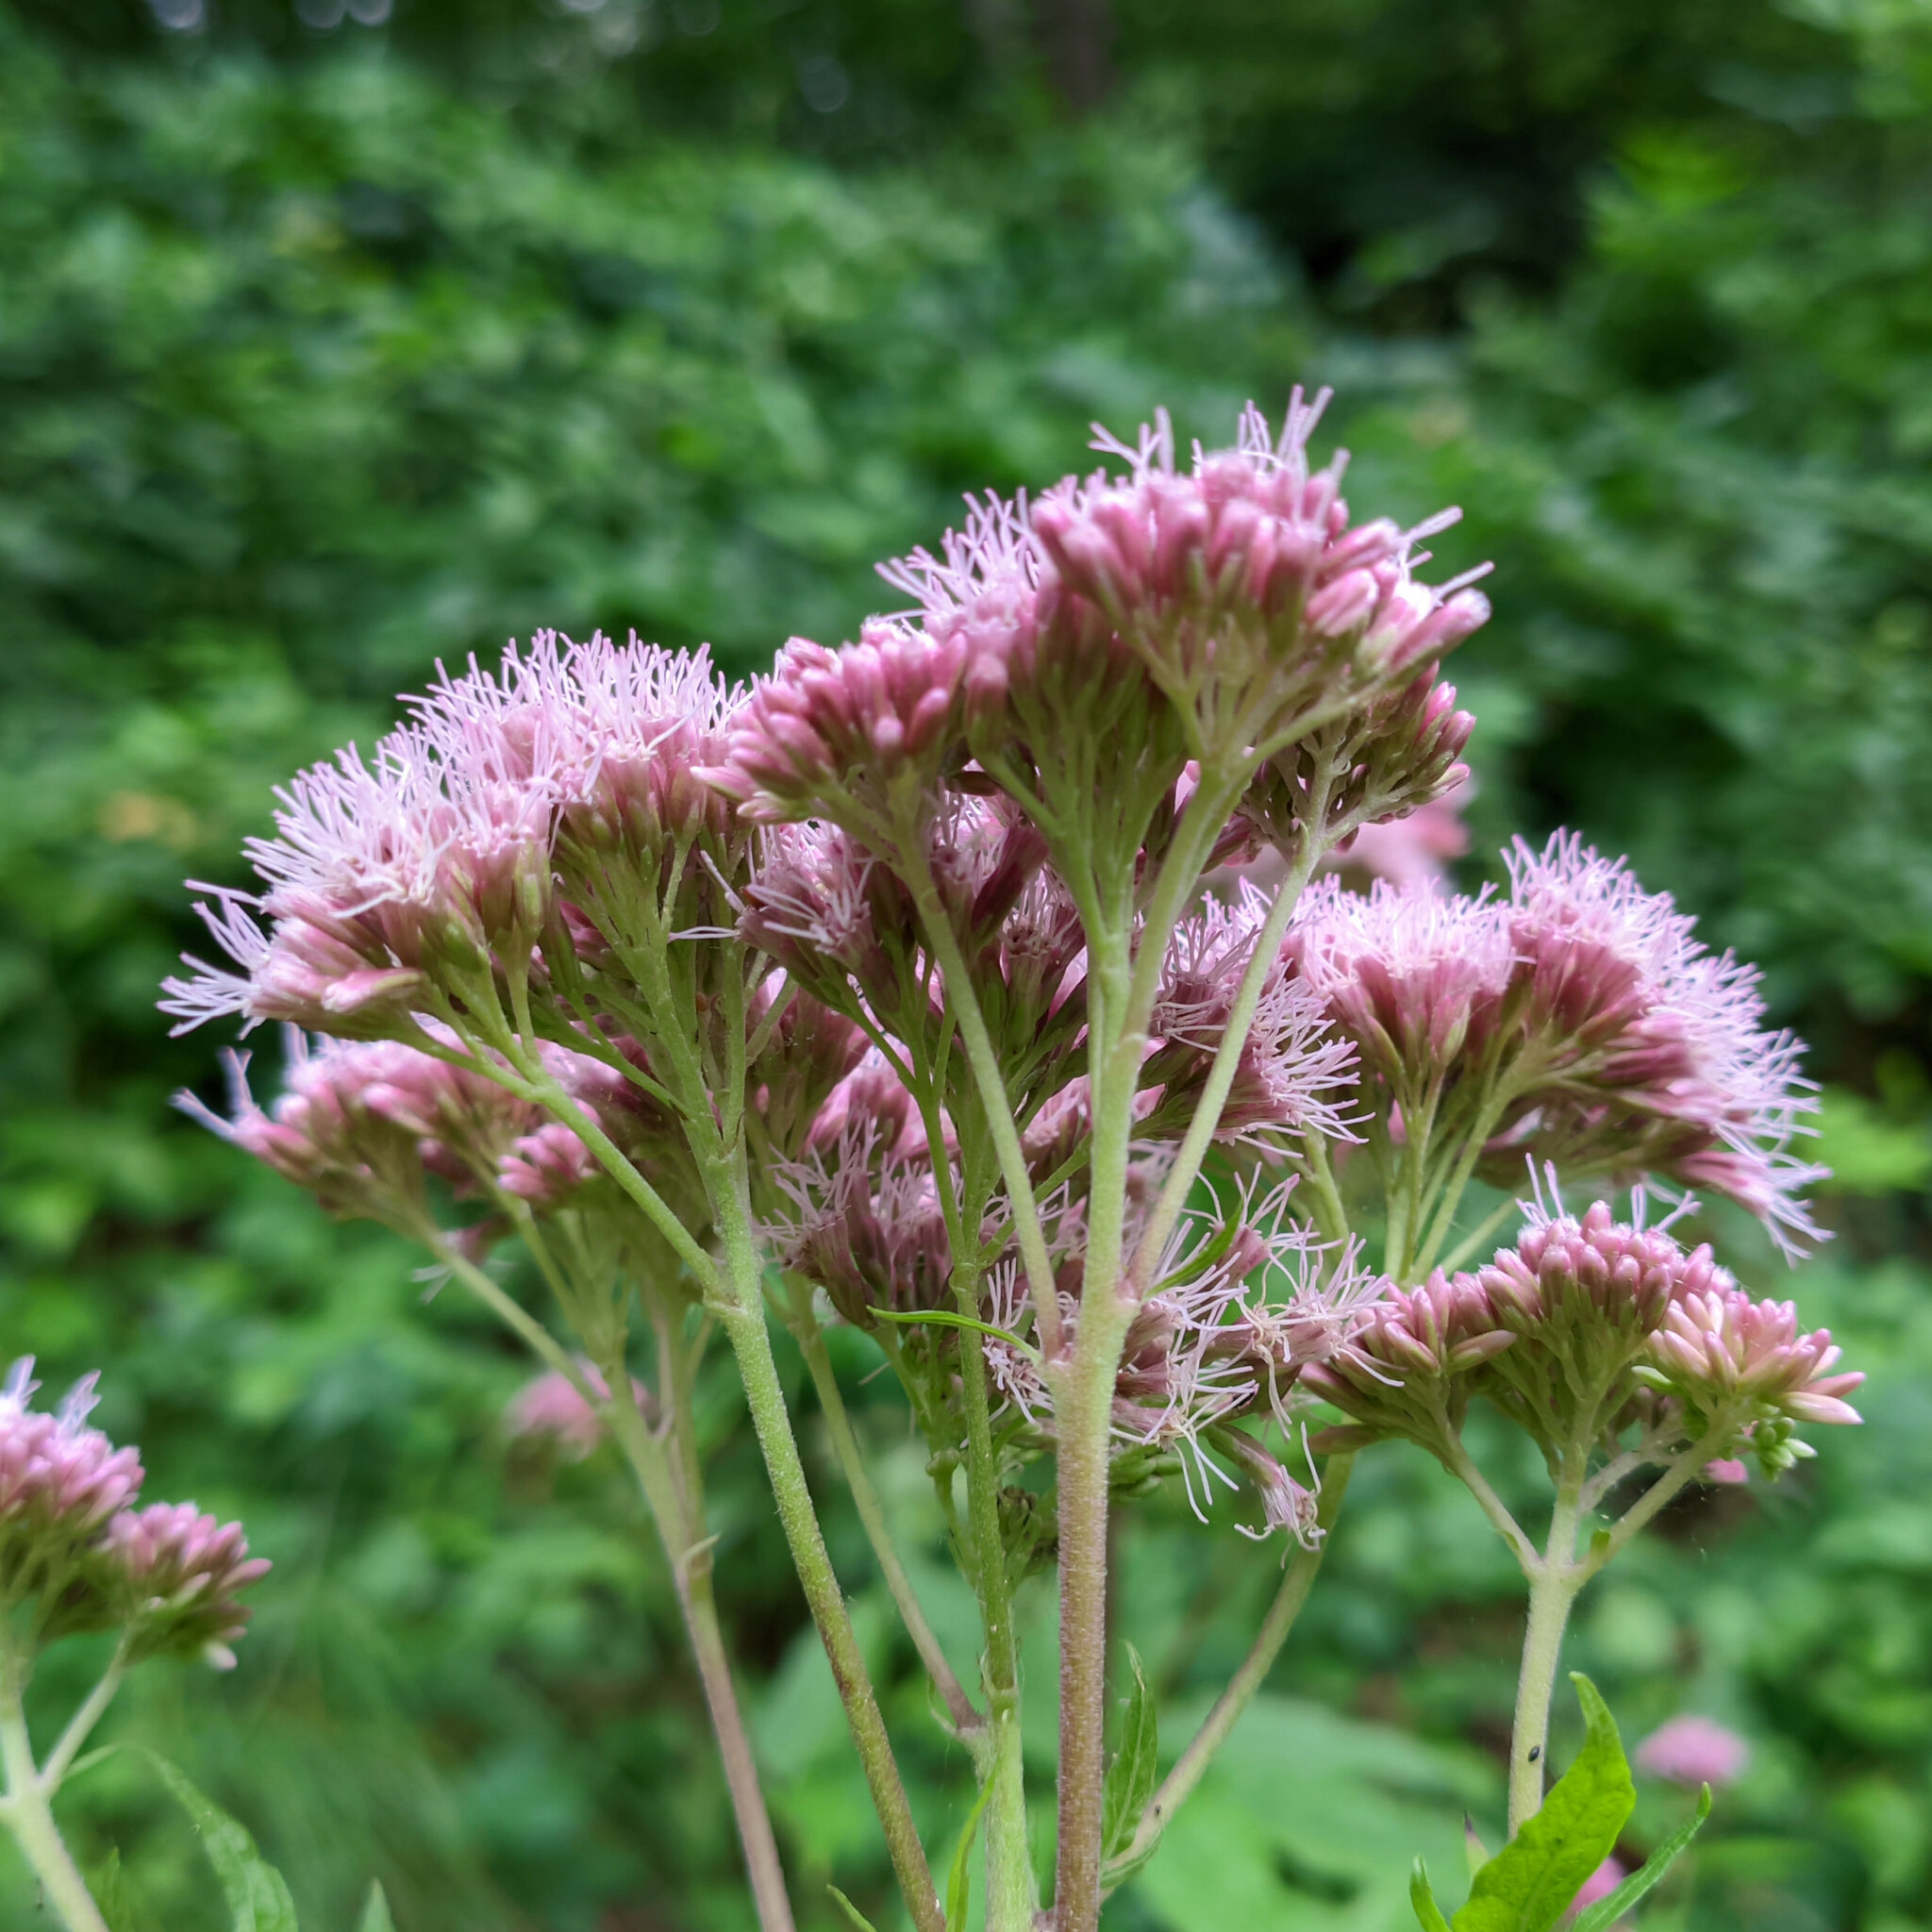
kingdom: Plantae
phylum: Tracheophyta
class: Magnoliopsida
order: Asterales
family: Asteraceae
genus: Eupatorium
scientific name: Eupatorium cannabinum
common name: Hemp-agrimony
